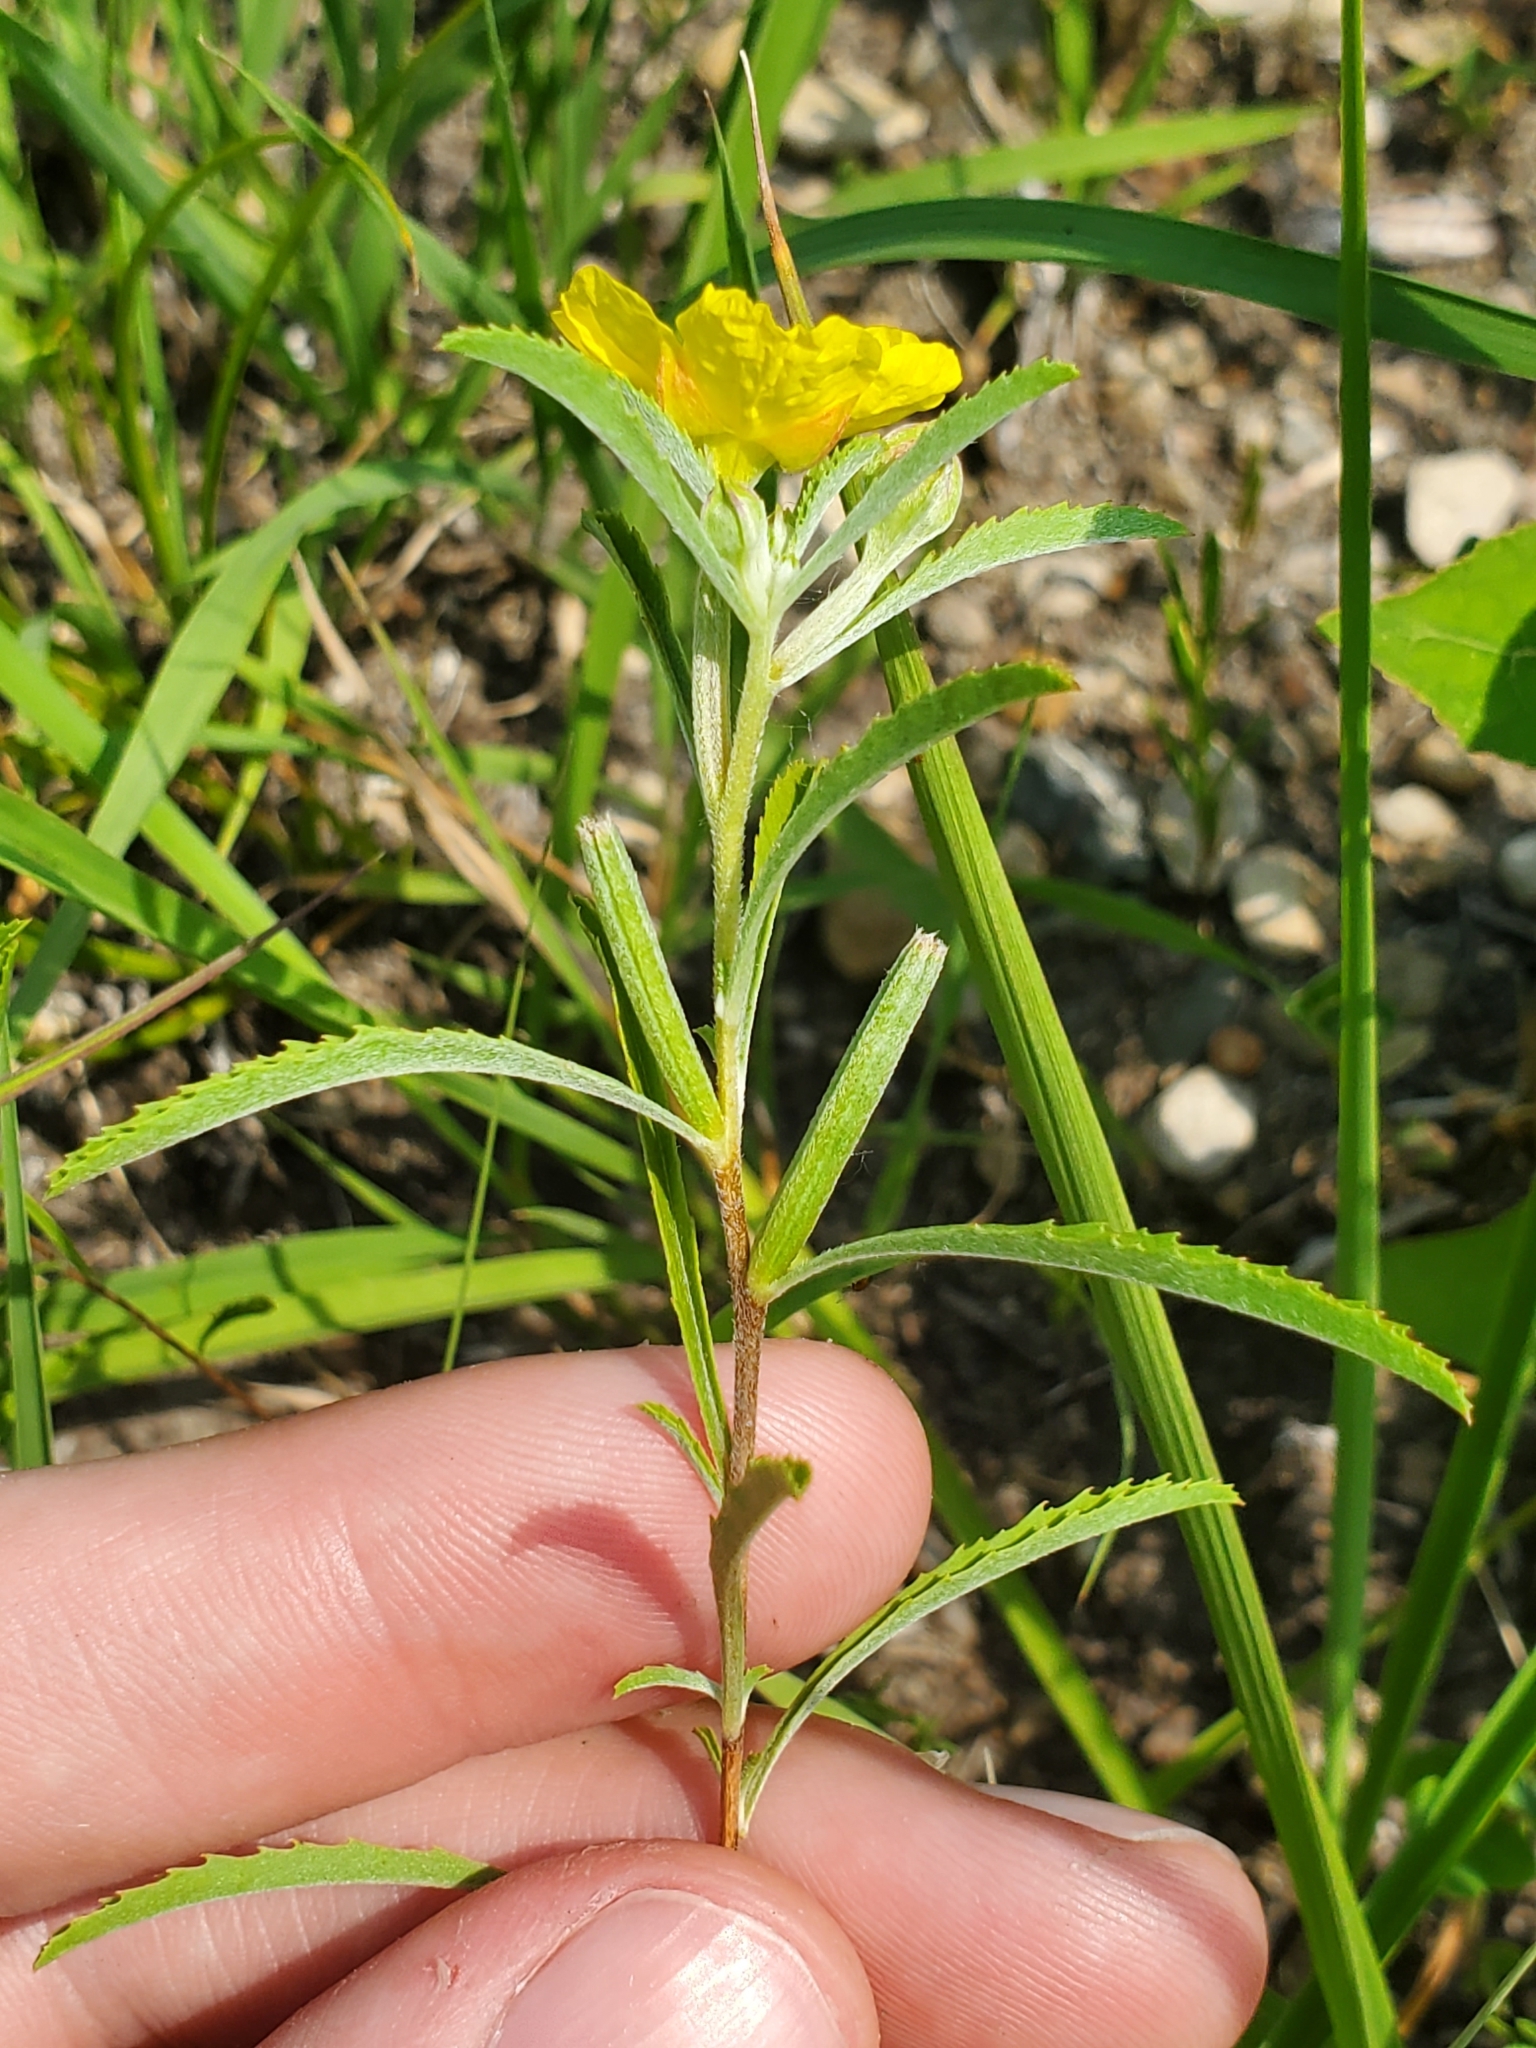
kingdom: Plantae
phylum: Tracheophyta
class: Magnoliopsida
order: Myrtales
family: Onagraceae
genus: Oenothera
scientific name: Oenothera serrulata
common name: Half-shrub calylophus
